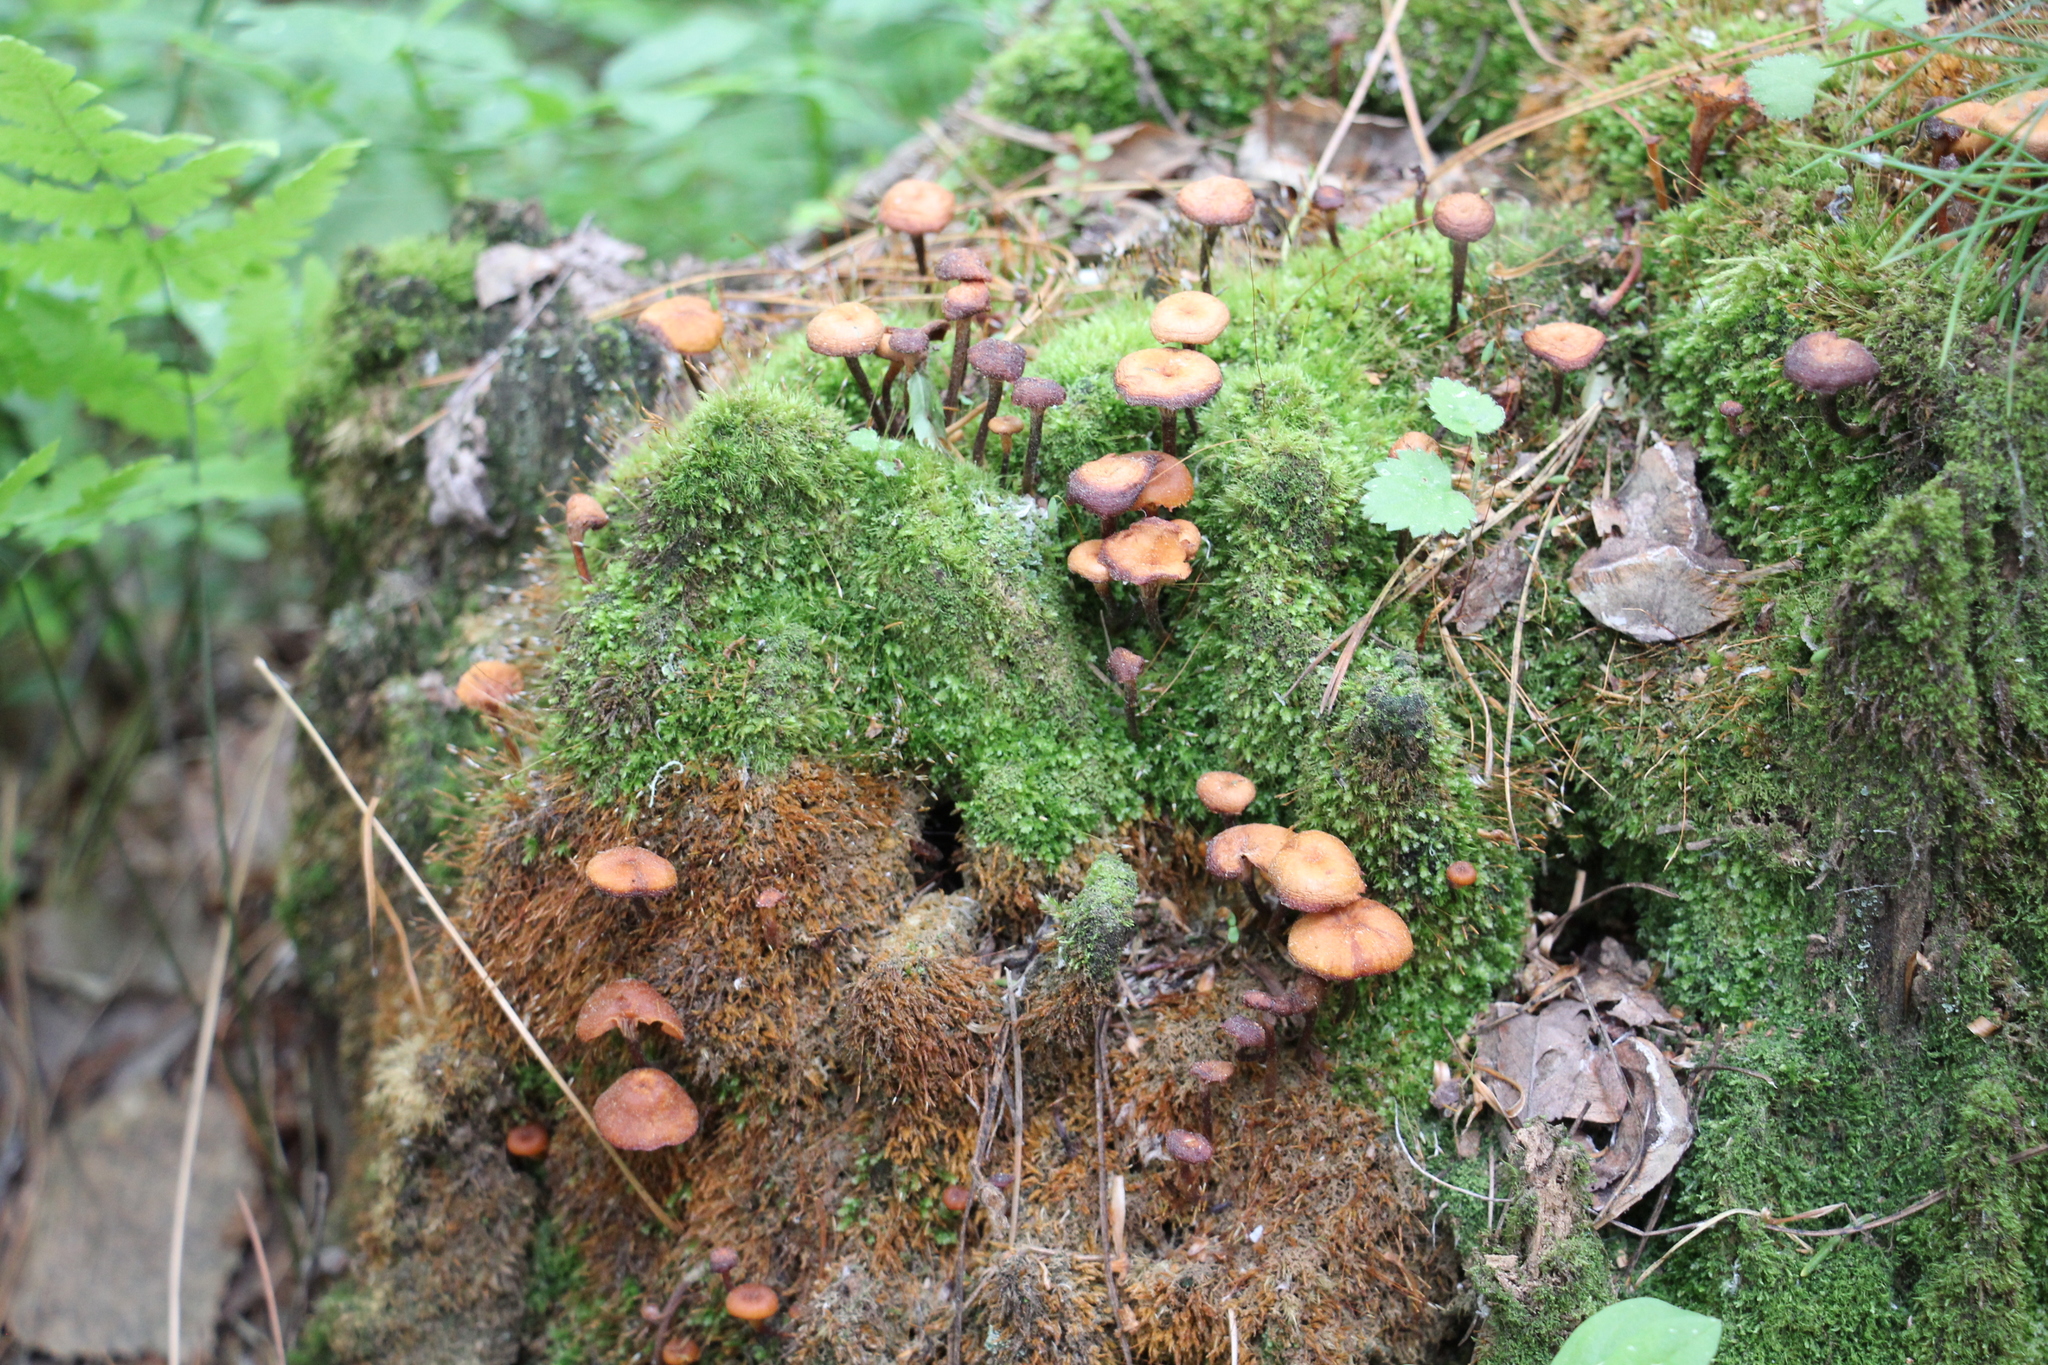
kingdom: Fungi
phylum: Basidiomycota
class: Agaricomycetes
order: Agaricales
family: Mycenaceae
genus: Xeromphalina
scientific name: Xeromphalina campanella
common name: Pinewood gingertail
